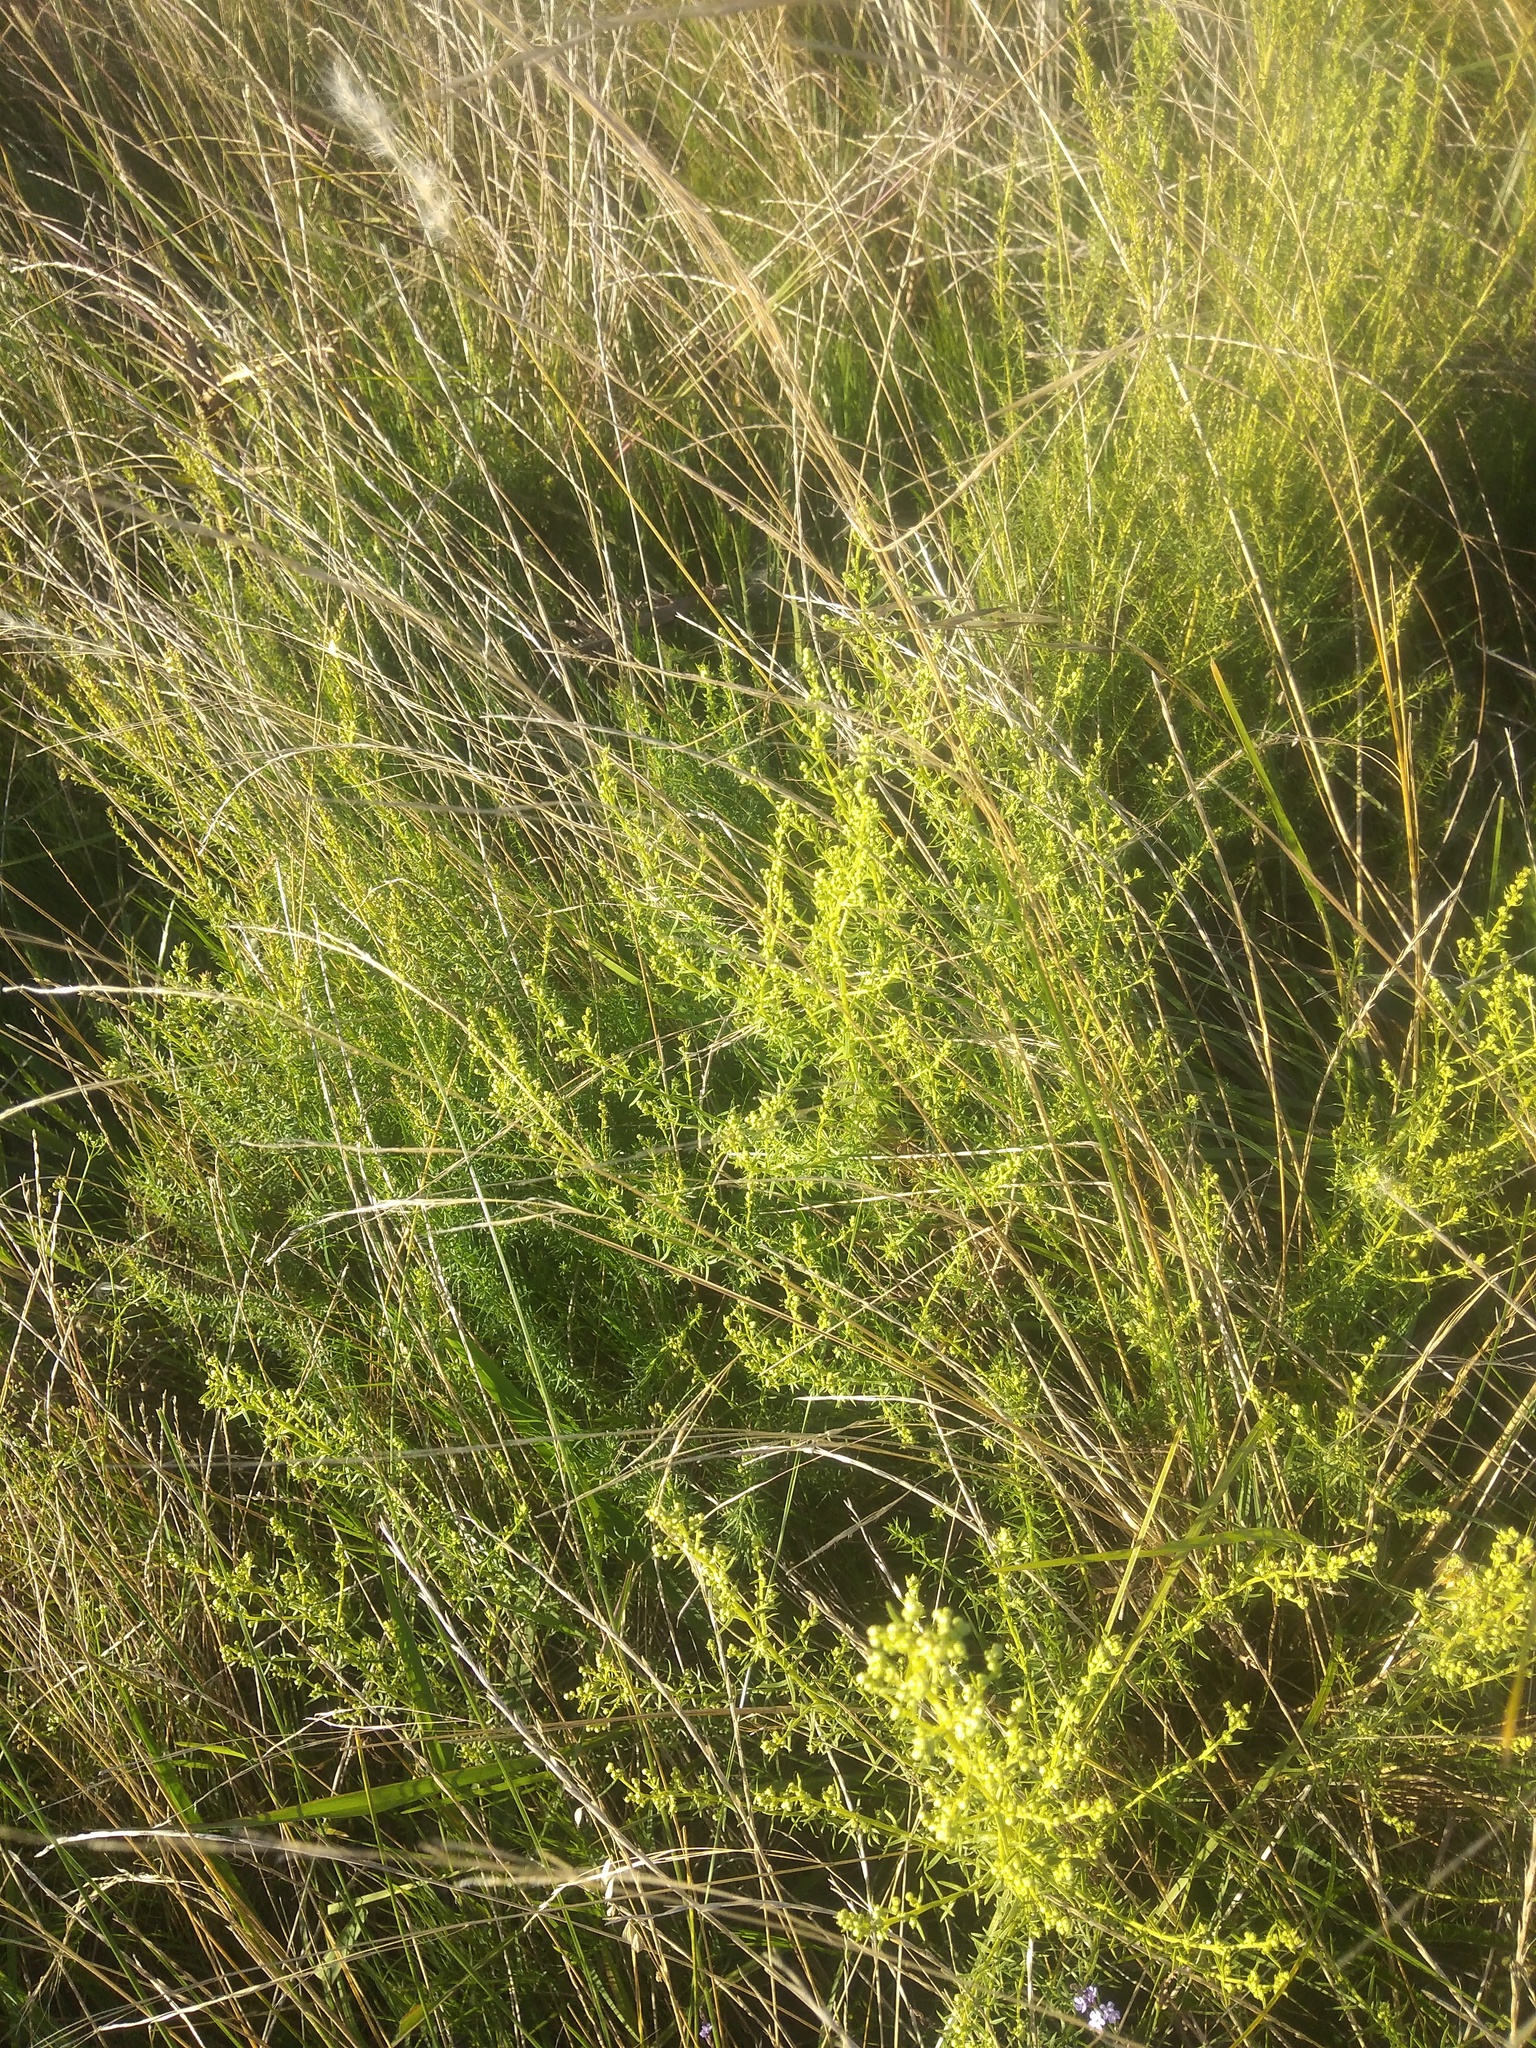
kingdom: Plantae
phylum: Tracheophyta
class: Magnoliopsida
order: Asterales
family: Asteraceae
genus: Baccharis
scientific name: Baccharis coridifolia
